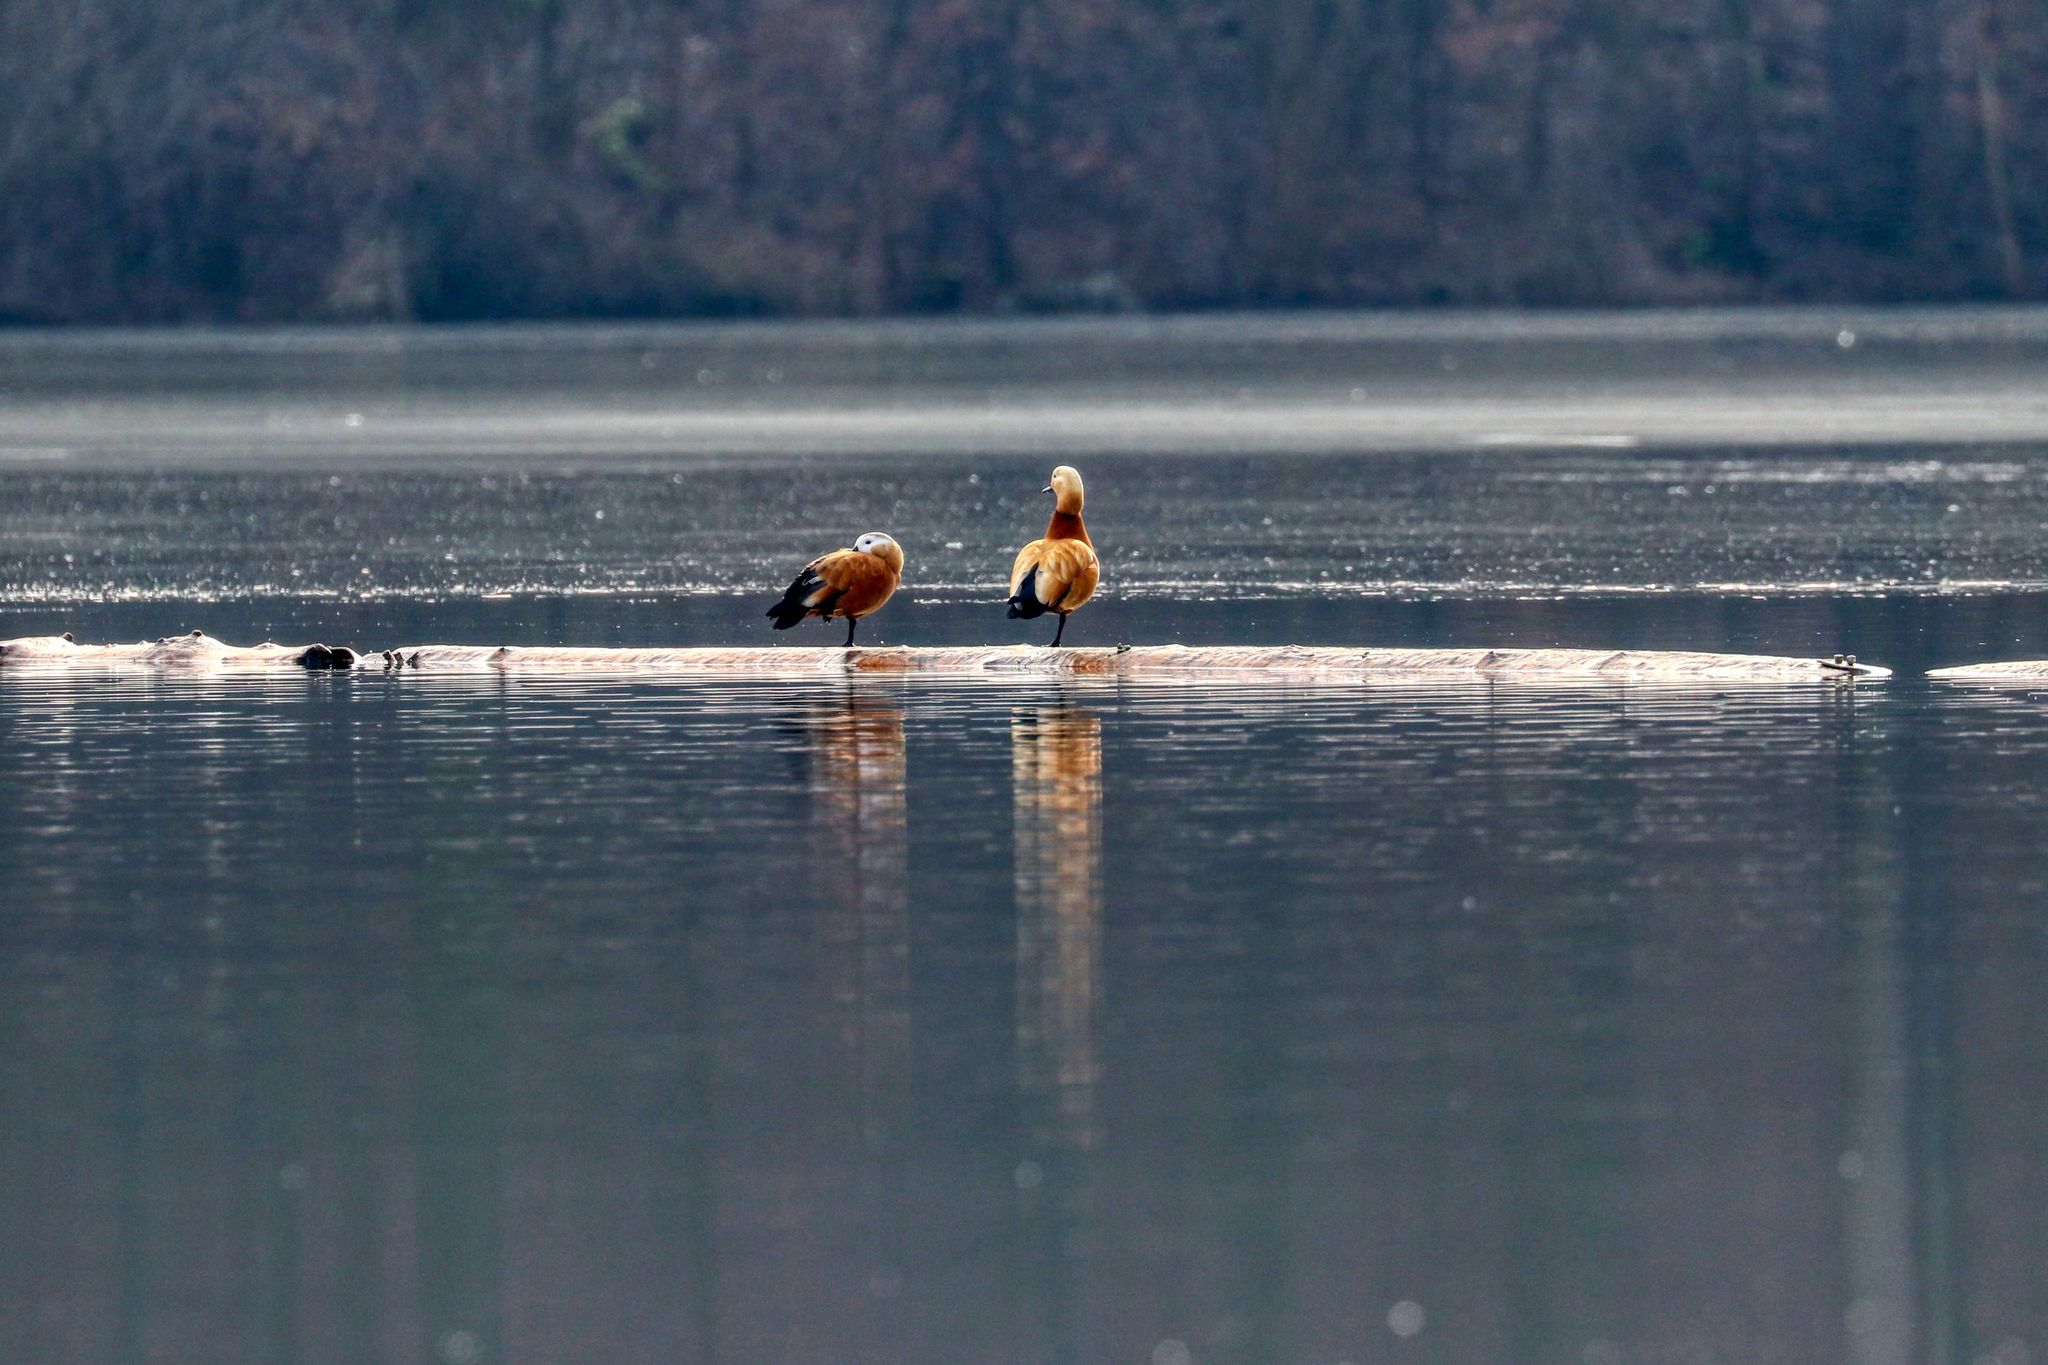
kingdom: Animalia
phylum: Chordata
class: Aves
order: Anseriformes
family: Anatidae
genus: Tadorna
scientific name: Tadorna ferruginea
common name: Ruddy shelduck
